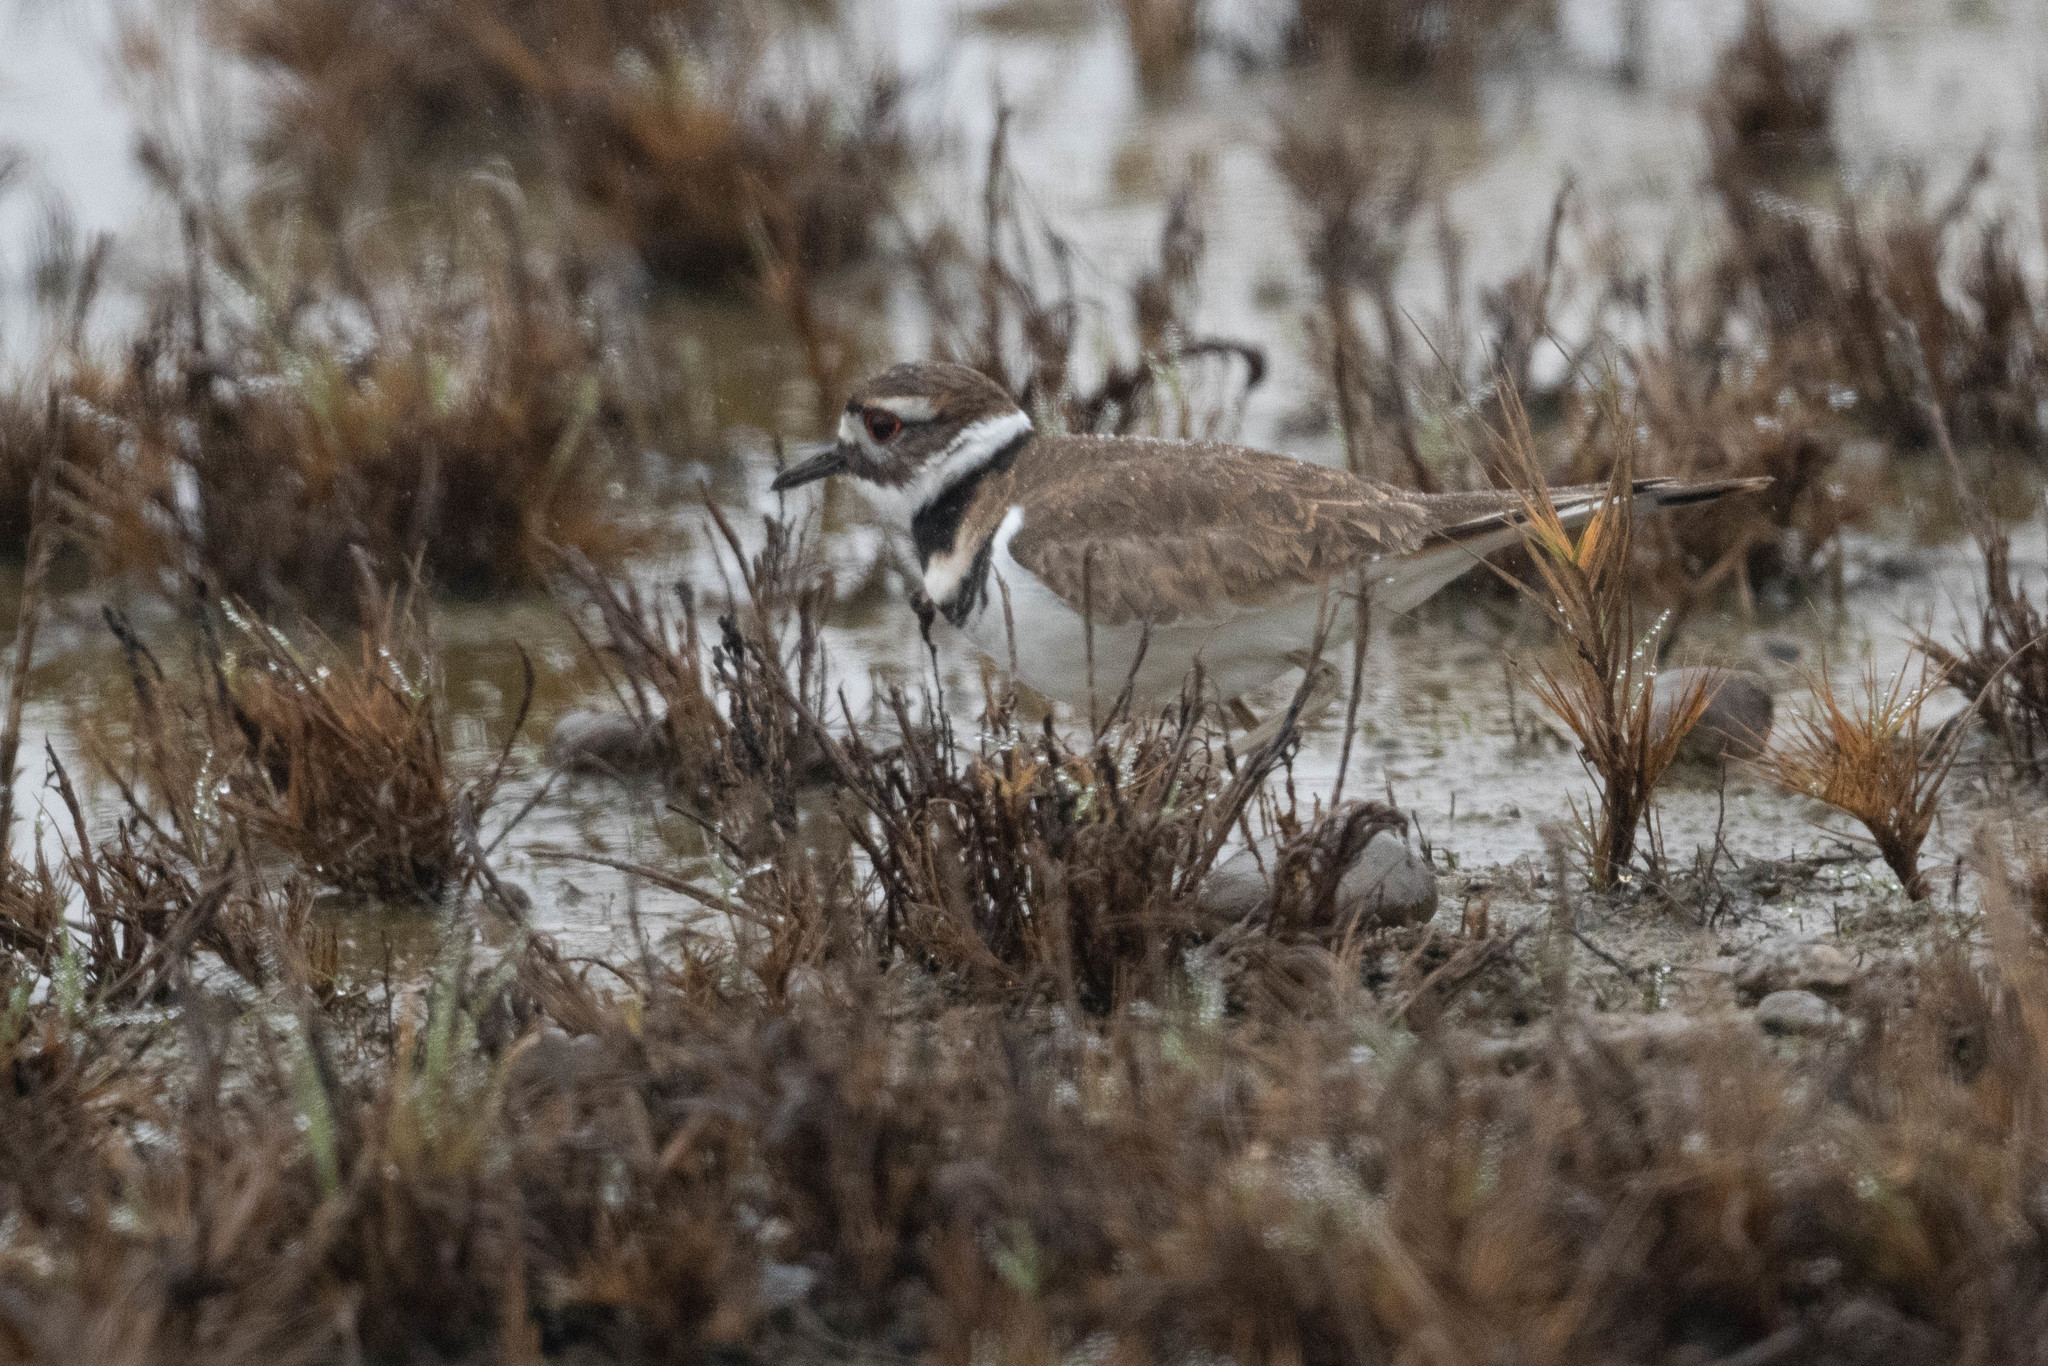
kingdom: Animalia
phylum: Chordata
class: Aves
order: Charadriiformes
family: Charadriidae
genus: Charadrius
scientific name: Charadrius vociferus
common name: Killdeer
